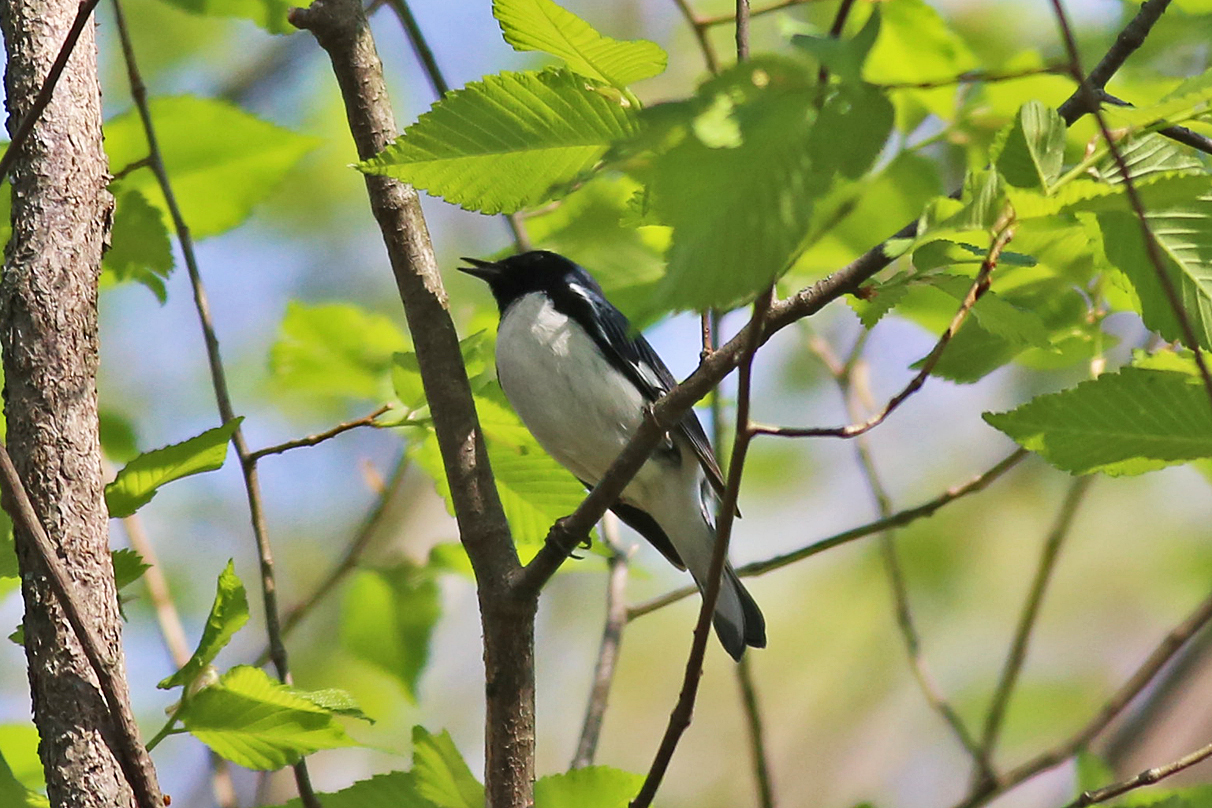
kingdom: Animalia
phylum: Chordata
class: Aves
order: Passeriformes
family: Parulidae
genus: Setophaga
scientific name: Setophaga caerulescens
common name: Black-throated blue warbler
